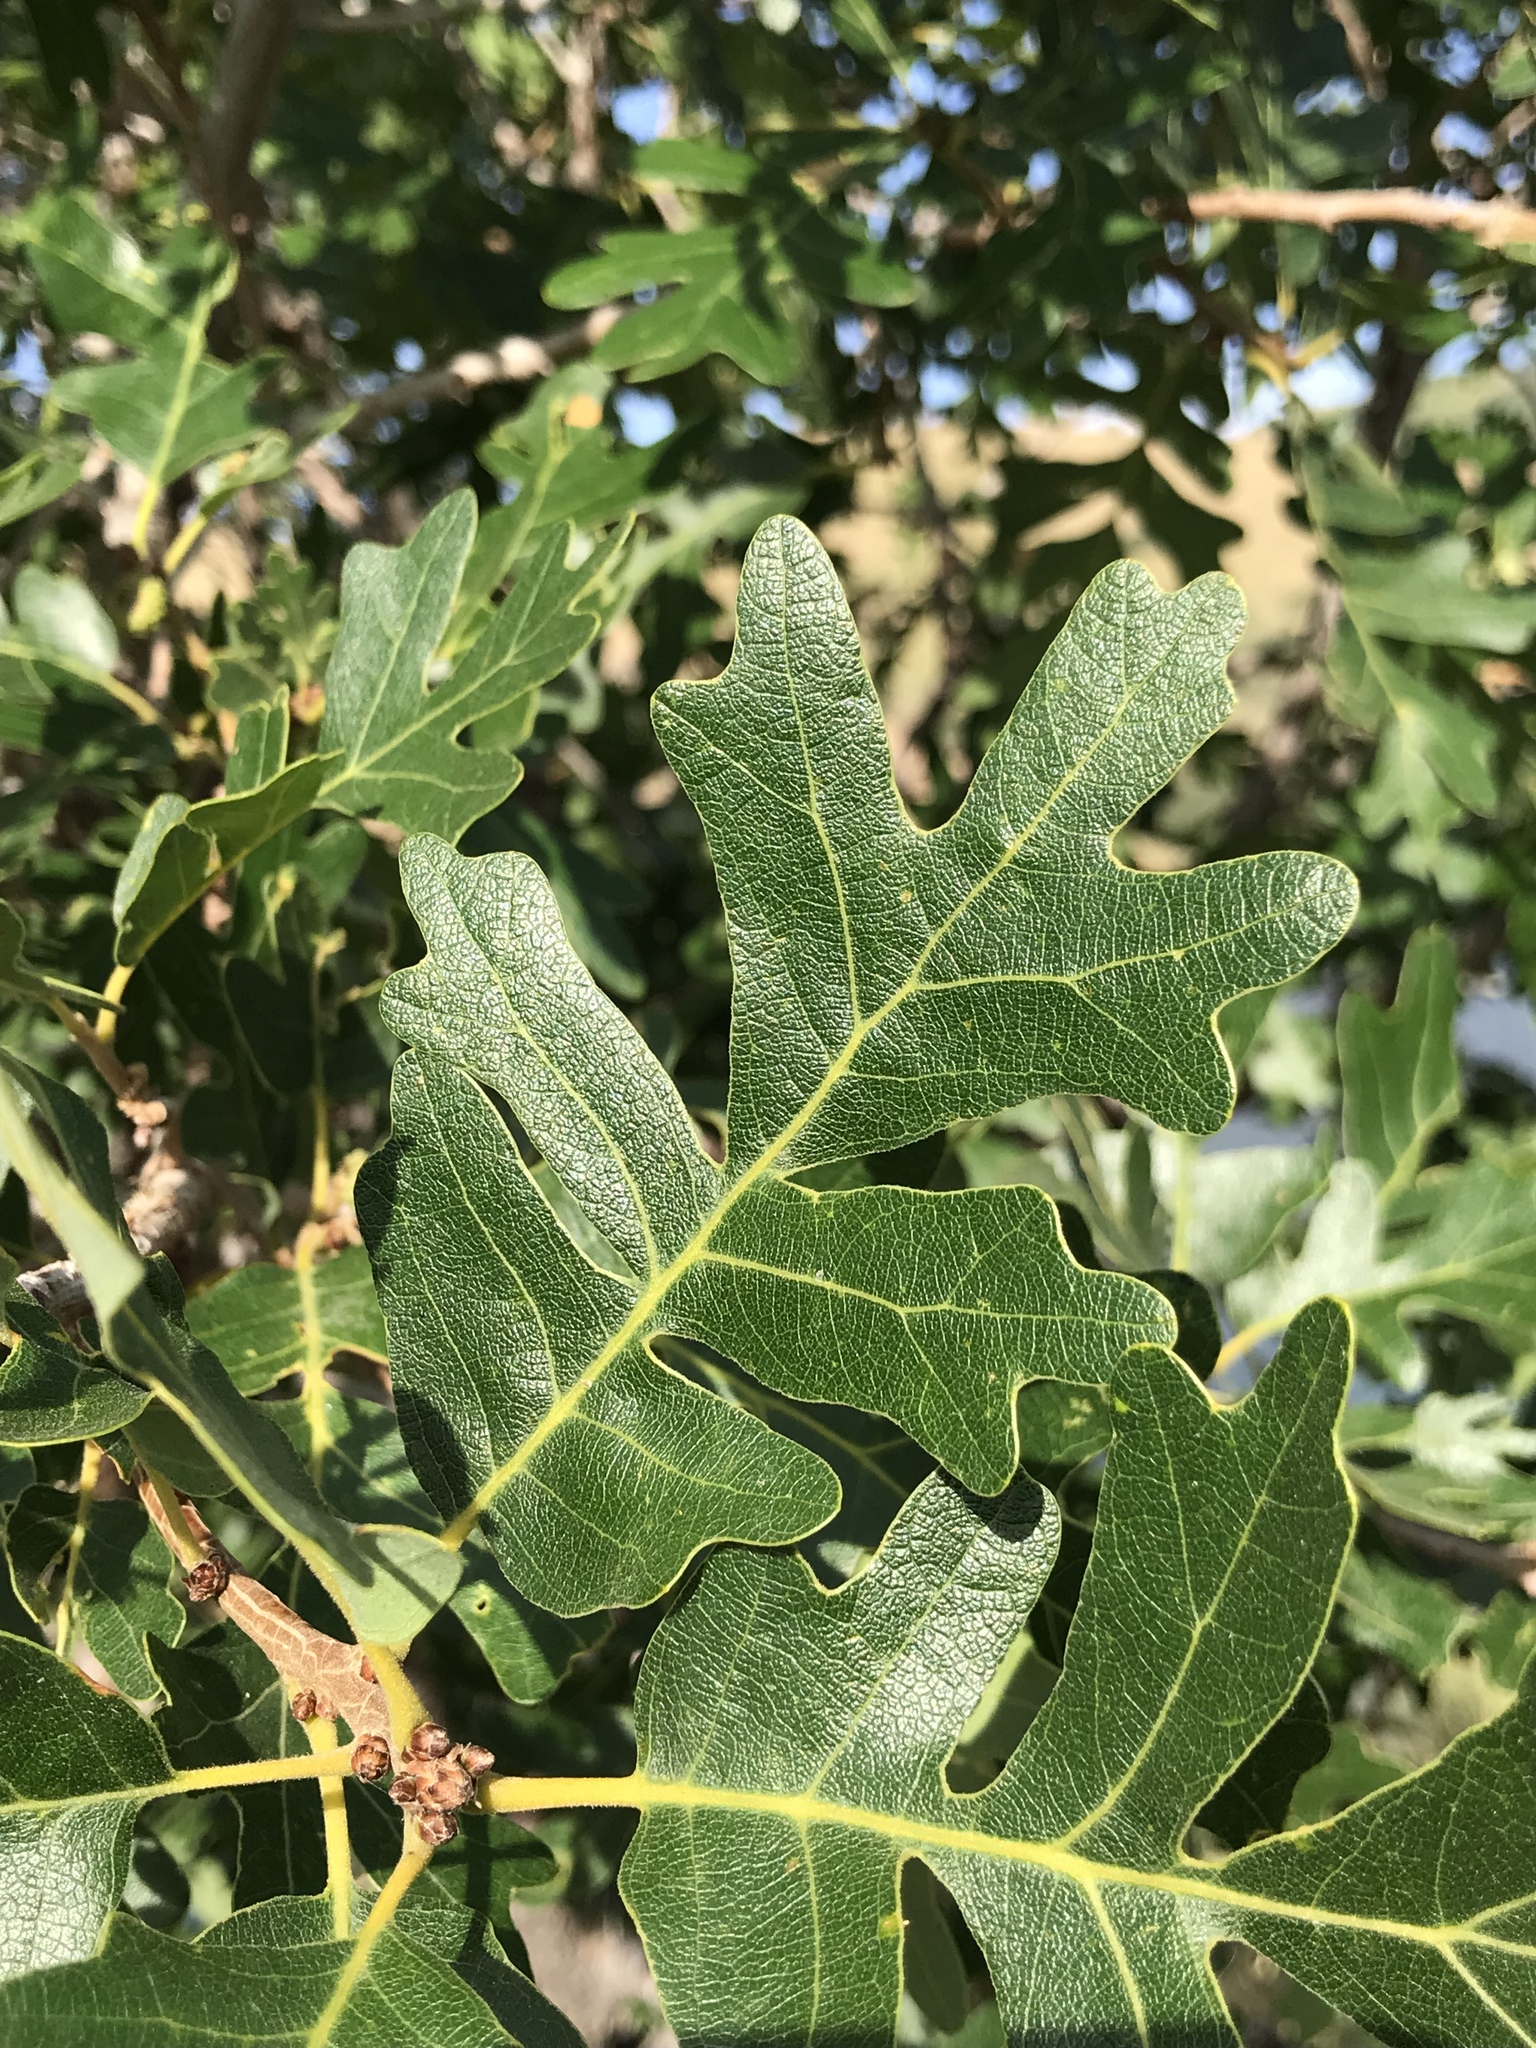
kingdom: Plantae
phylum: Tracheophyta
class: Magnoliopsida
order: Fagales
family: Fagaceae
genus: Quercus
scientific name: Quercus gambelii
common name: Gambel oak
